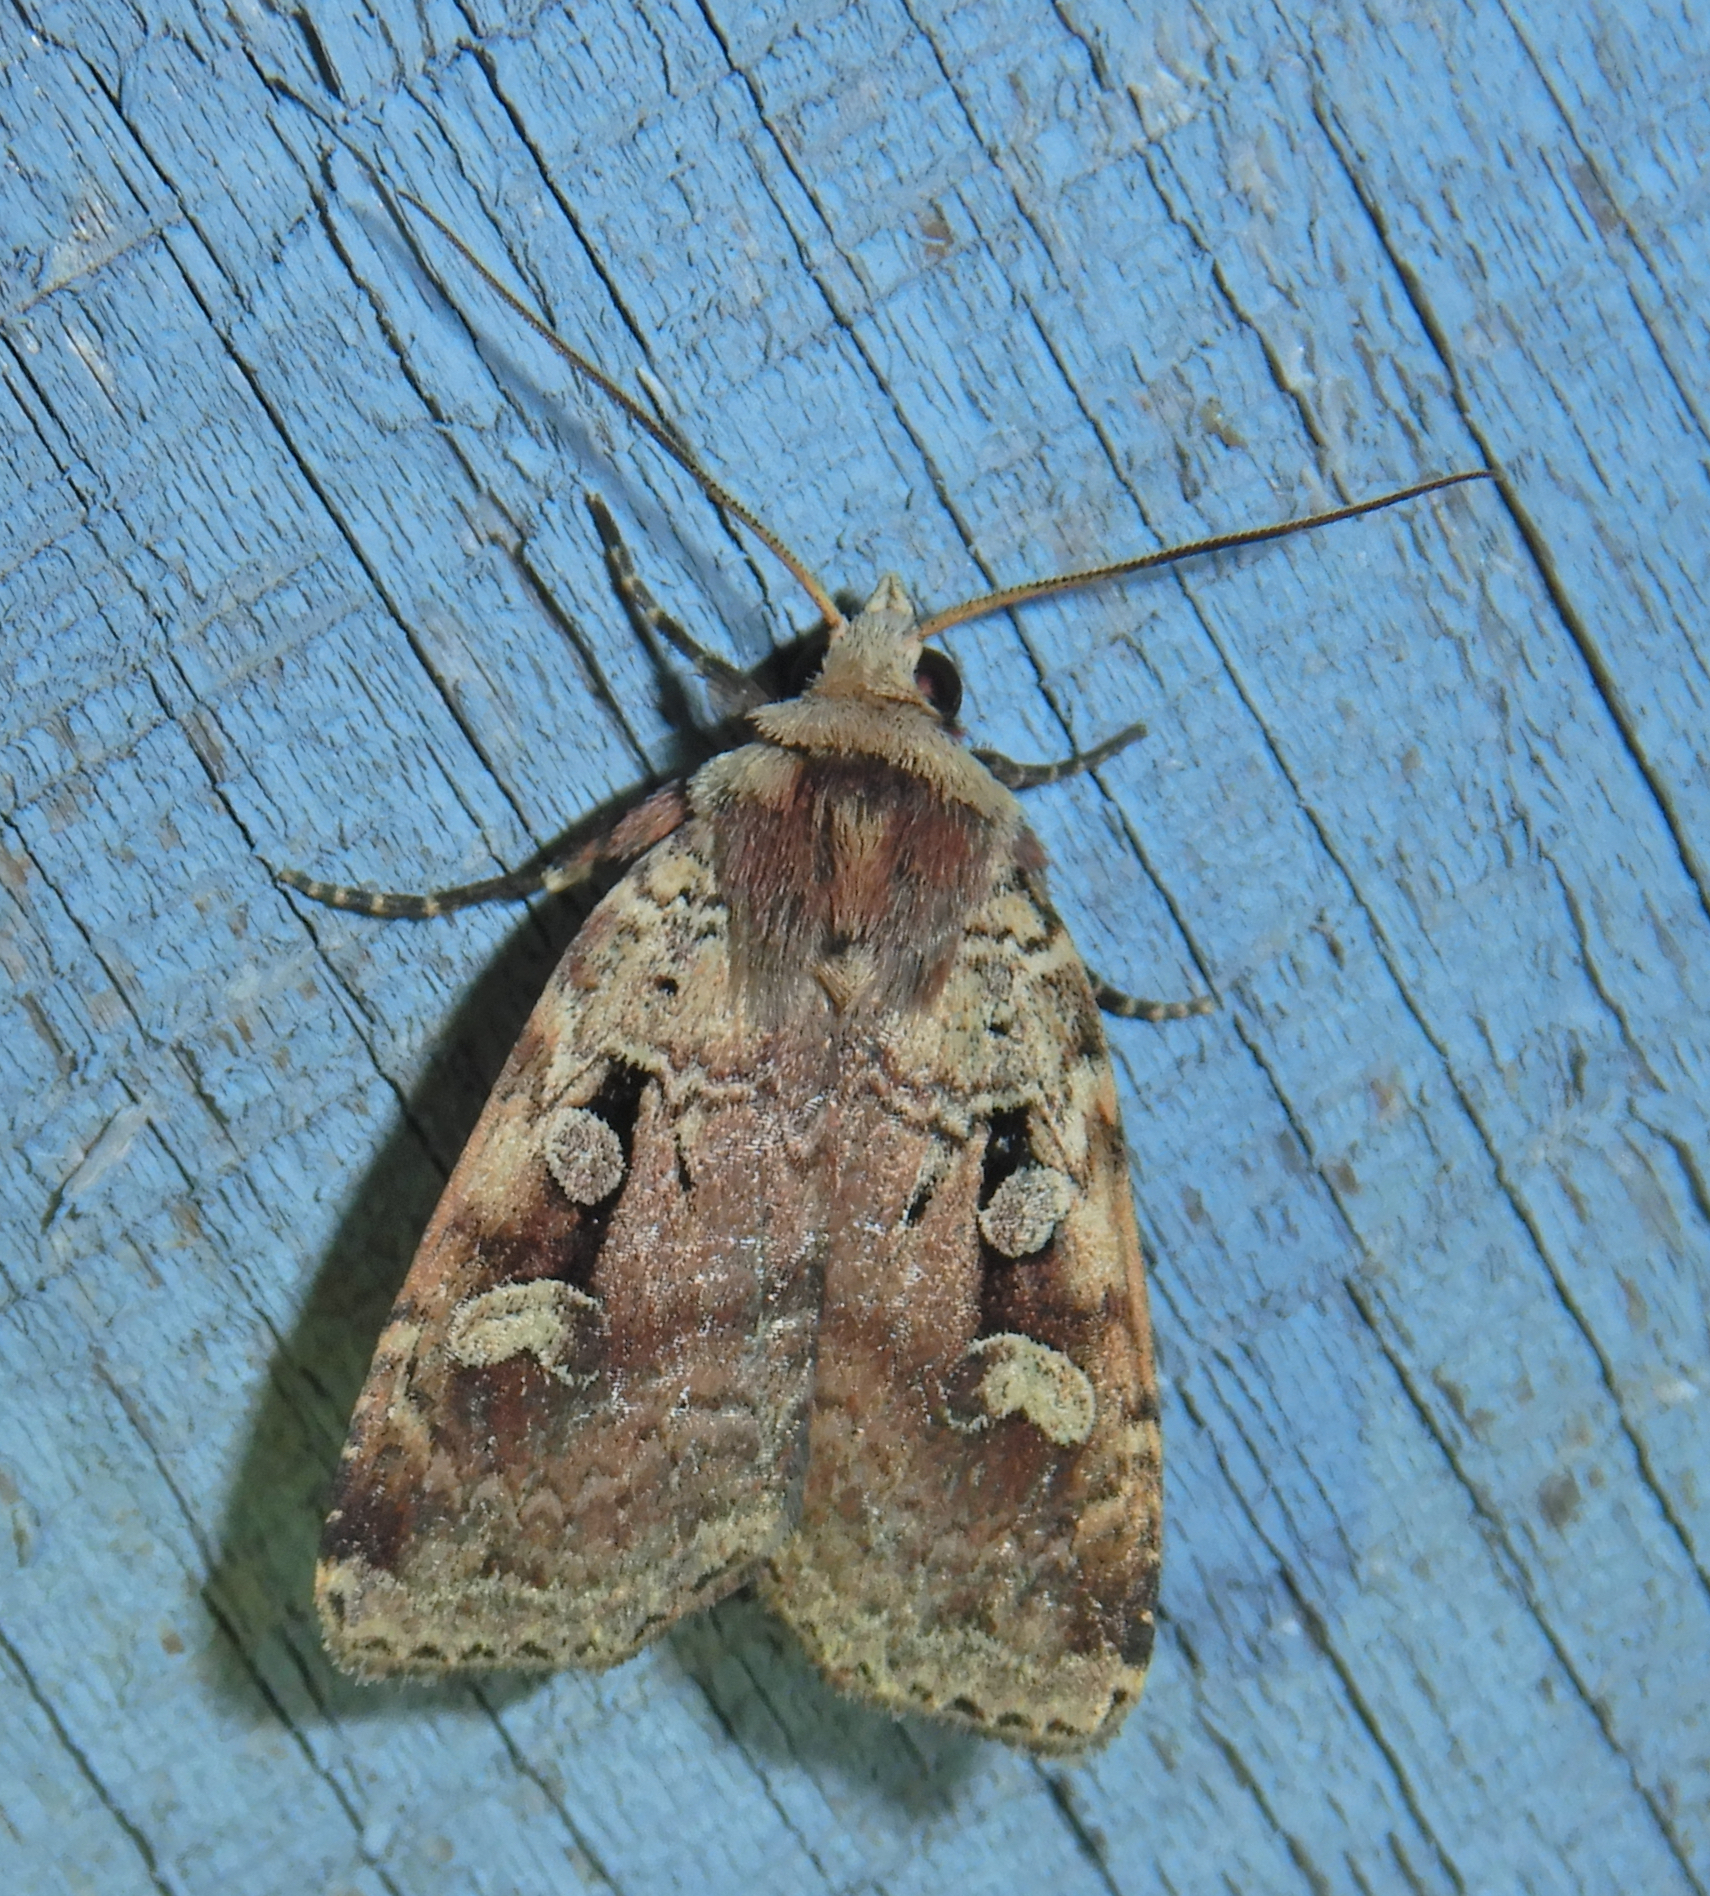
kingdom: Animalia
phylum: Arthropoda
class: Insecta
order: Lepidoptera
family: Noctuidae
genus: Diarsia
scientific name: Diarsia jucunda
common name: Smaller pinkish dart
